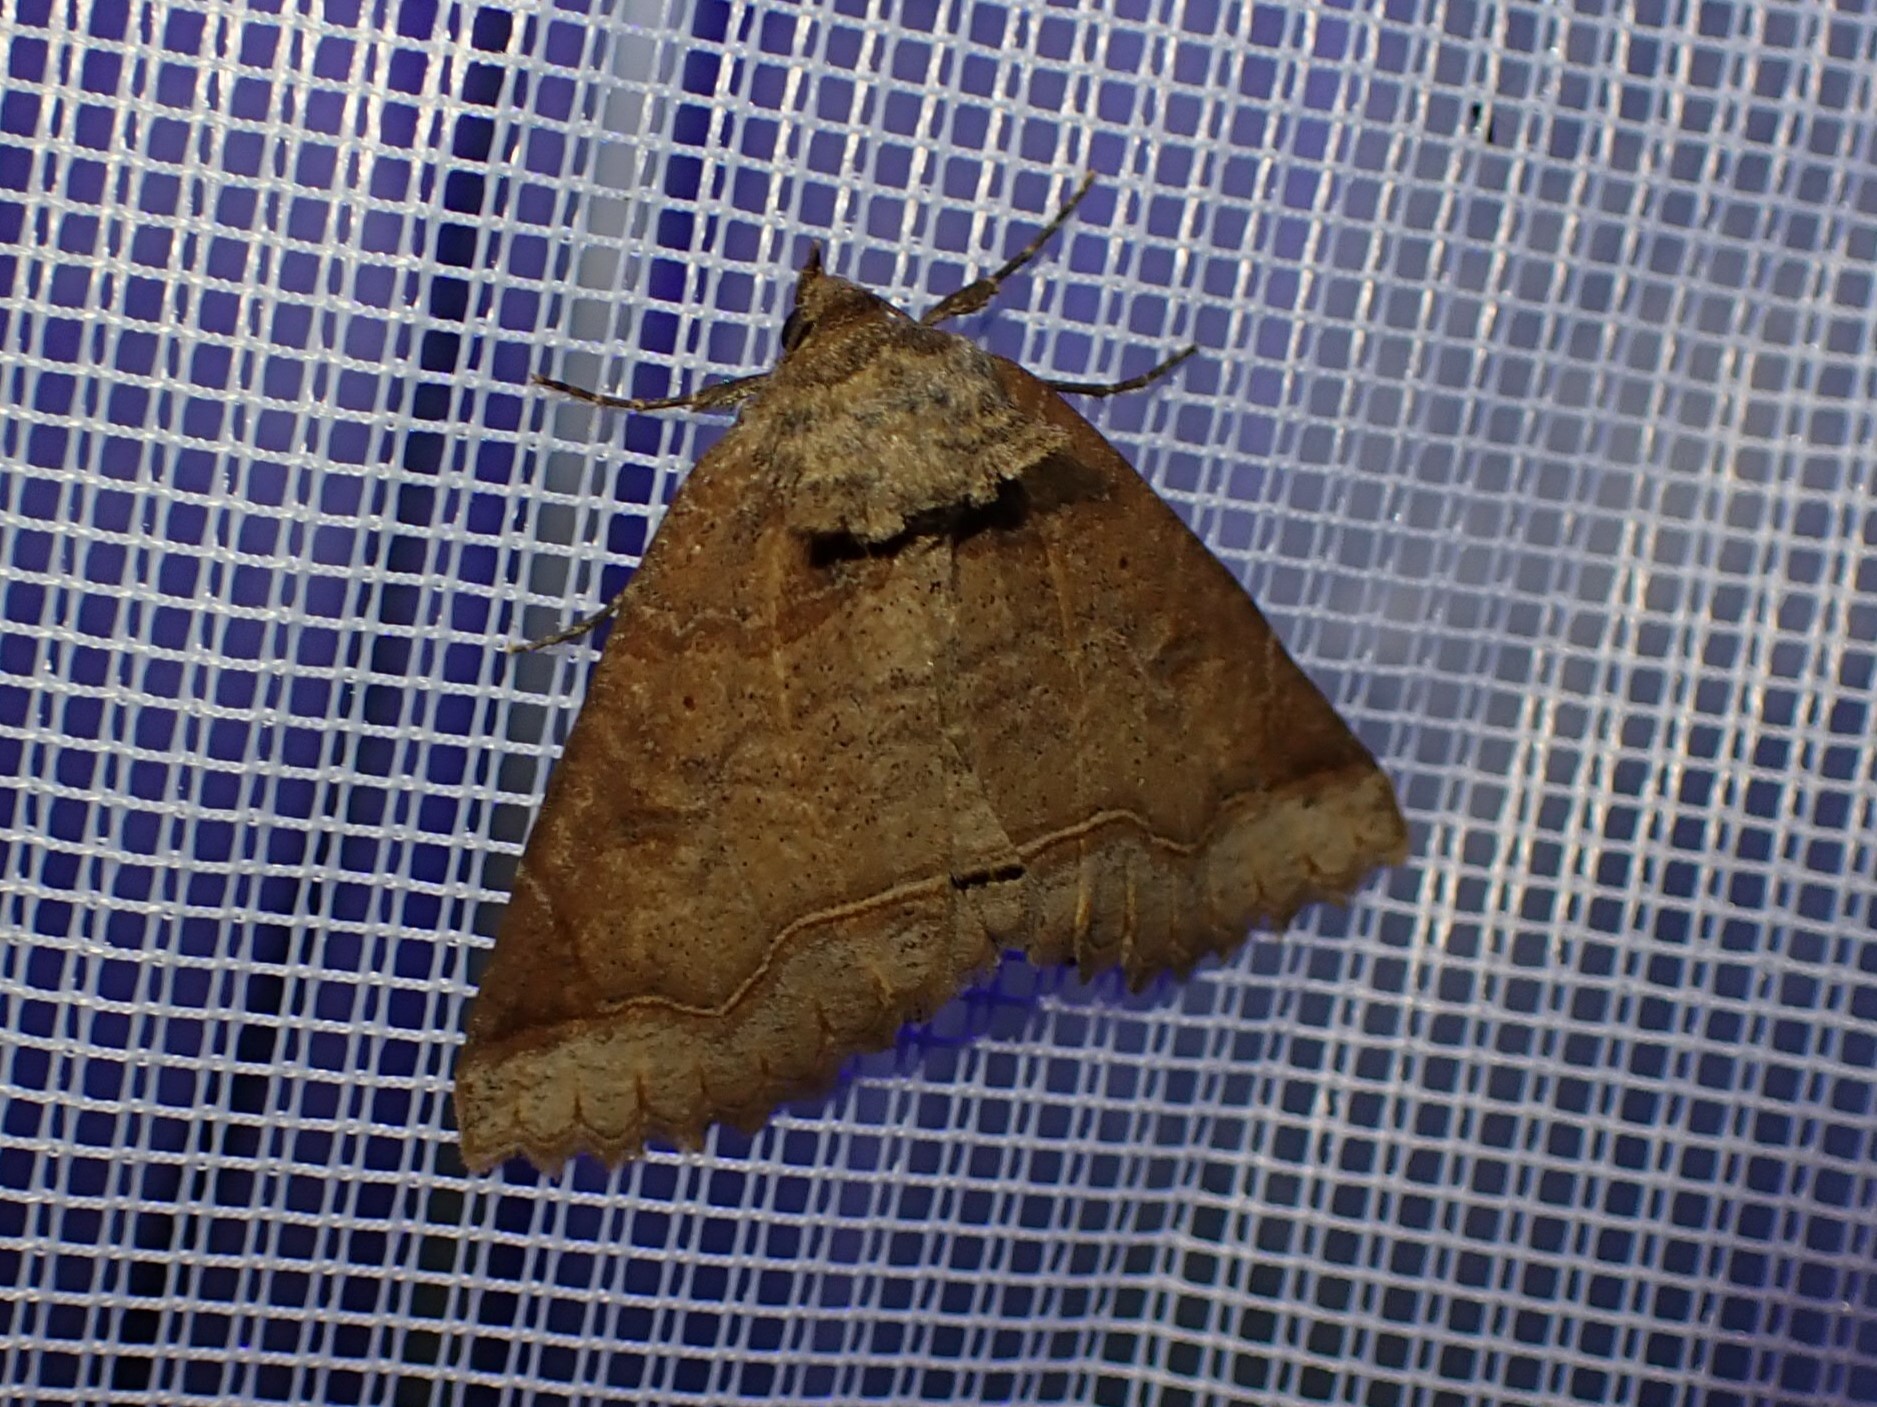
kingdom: Animalia
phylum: Arthropoda
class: Insecta
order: Lepidoptera
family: Erebidae
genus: Zale
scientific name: Zale unilineata
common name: One-lined zale moth
